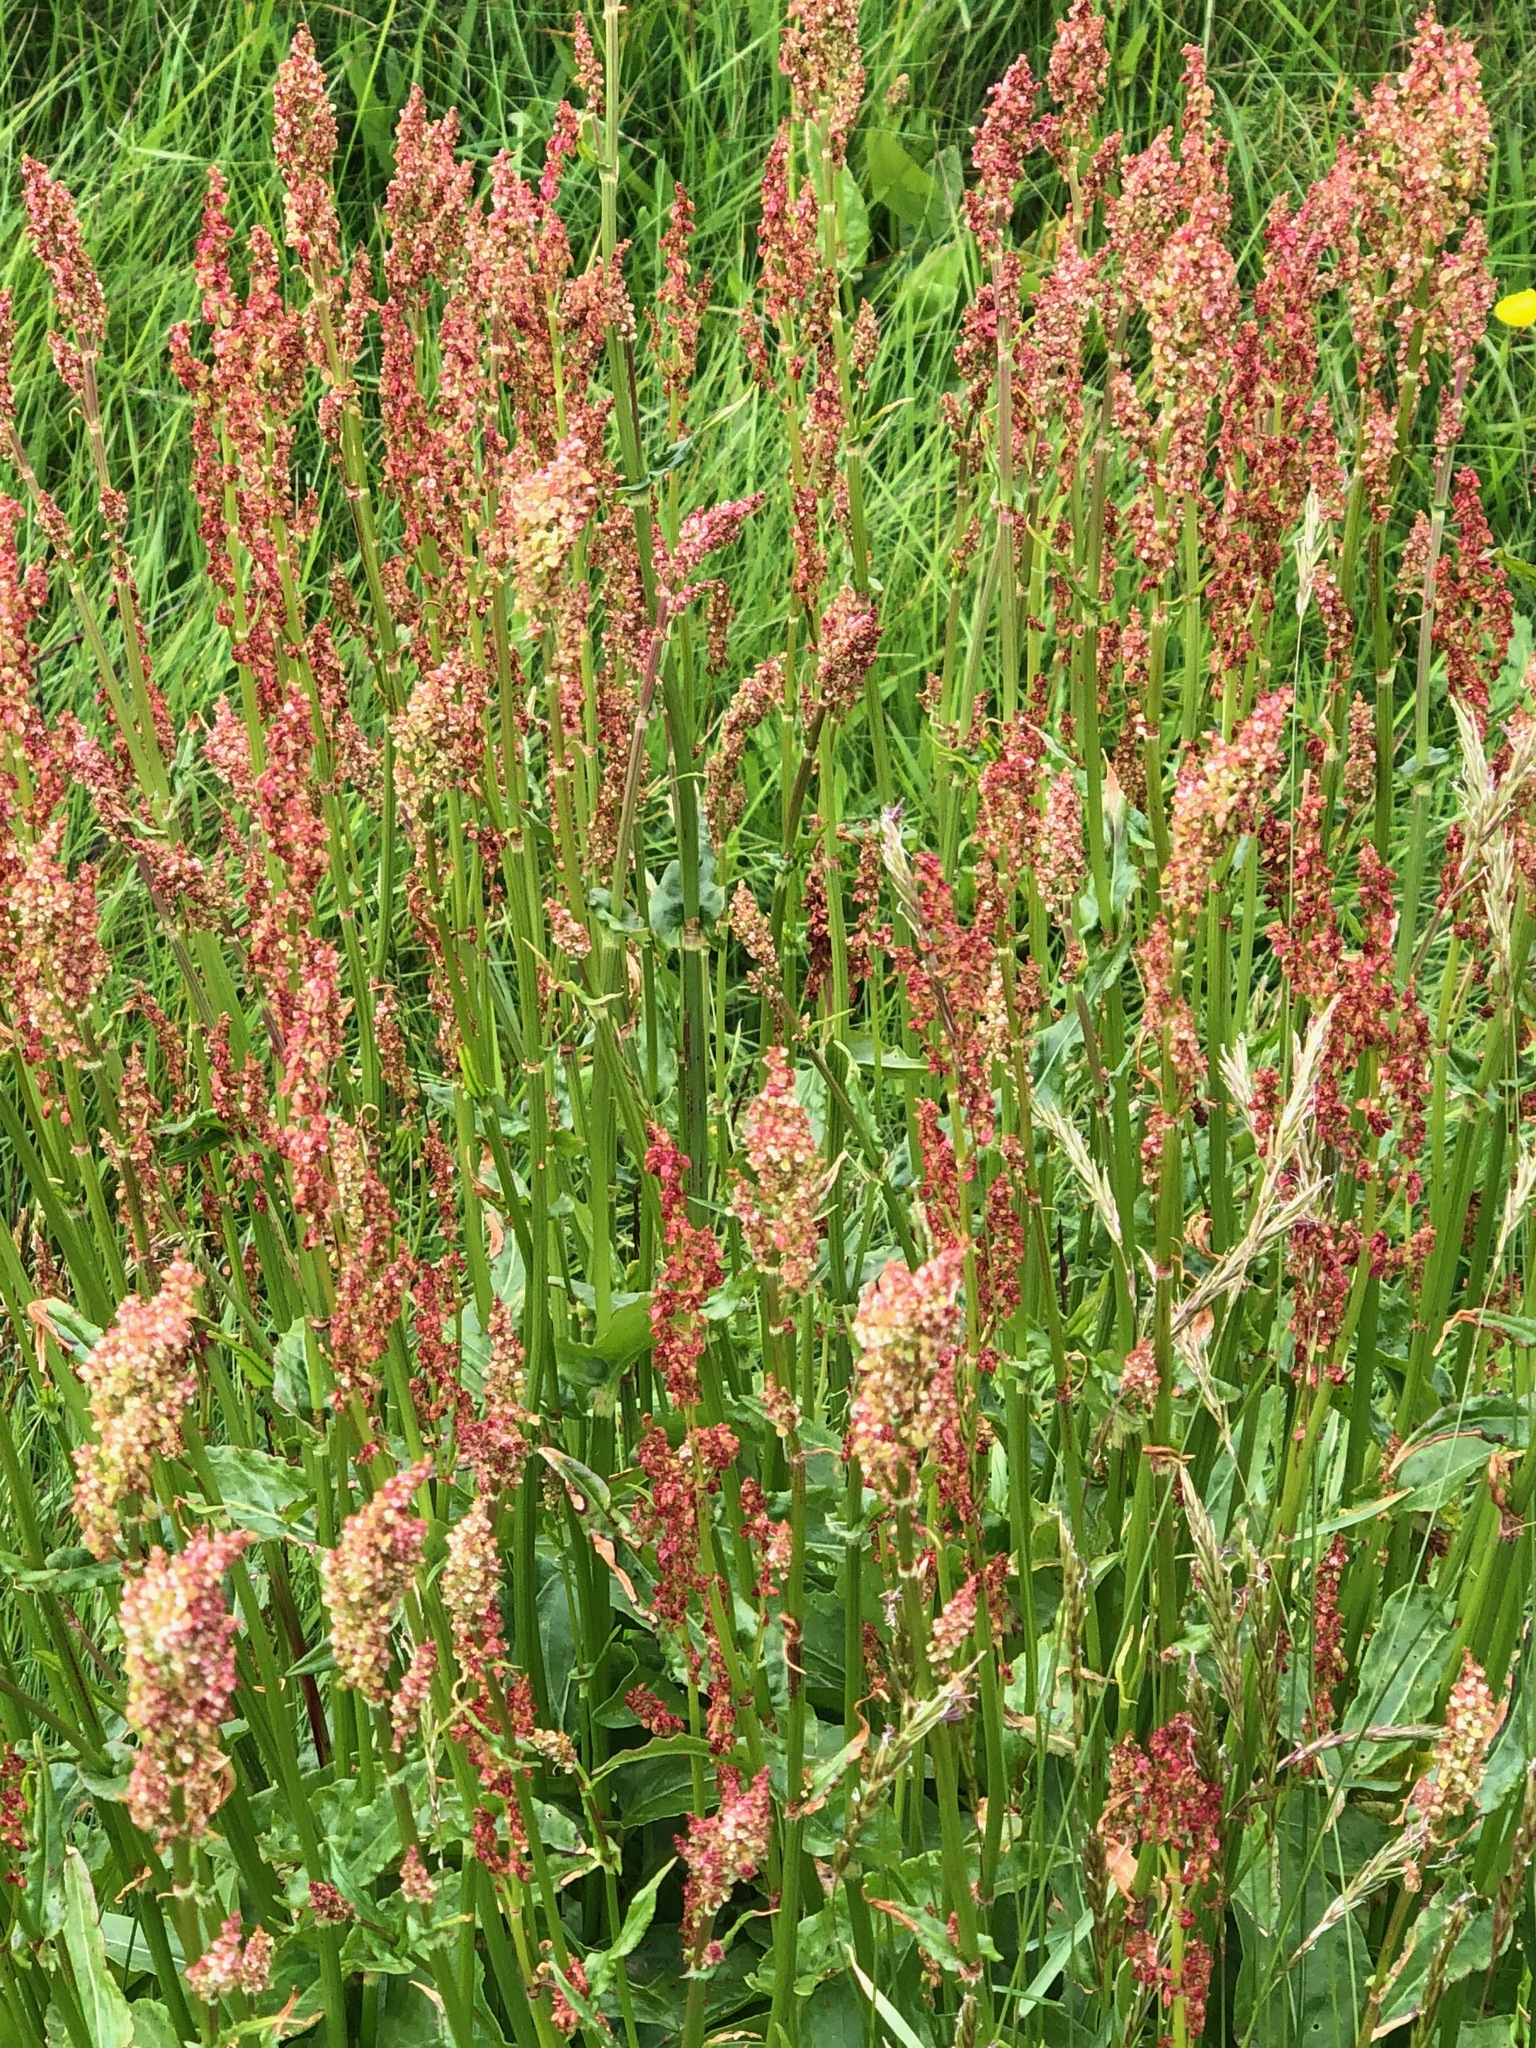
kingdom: Plantae
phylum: Tracheophyta
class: Magnoliopsida
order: Caryophyllales
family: Polygonaceae
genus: Rumex
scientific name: Rumex acetosa
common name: Garden sorrel
